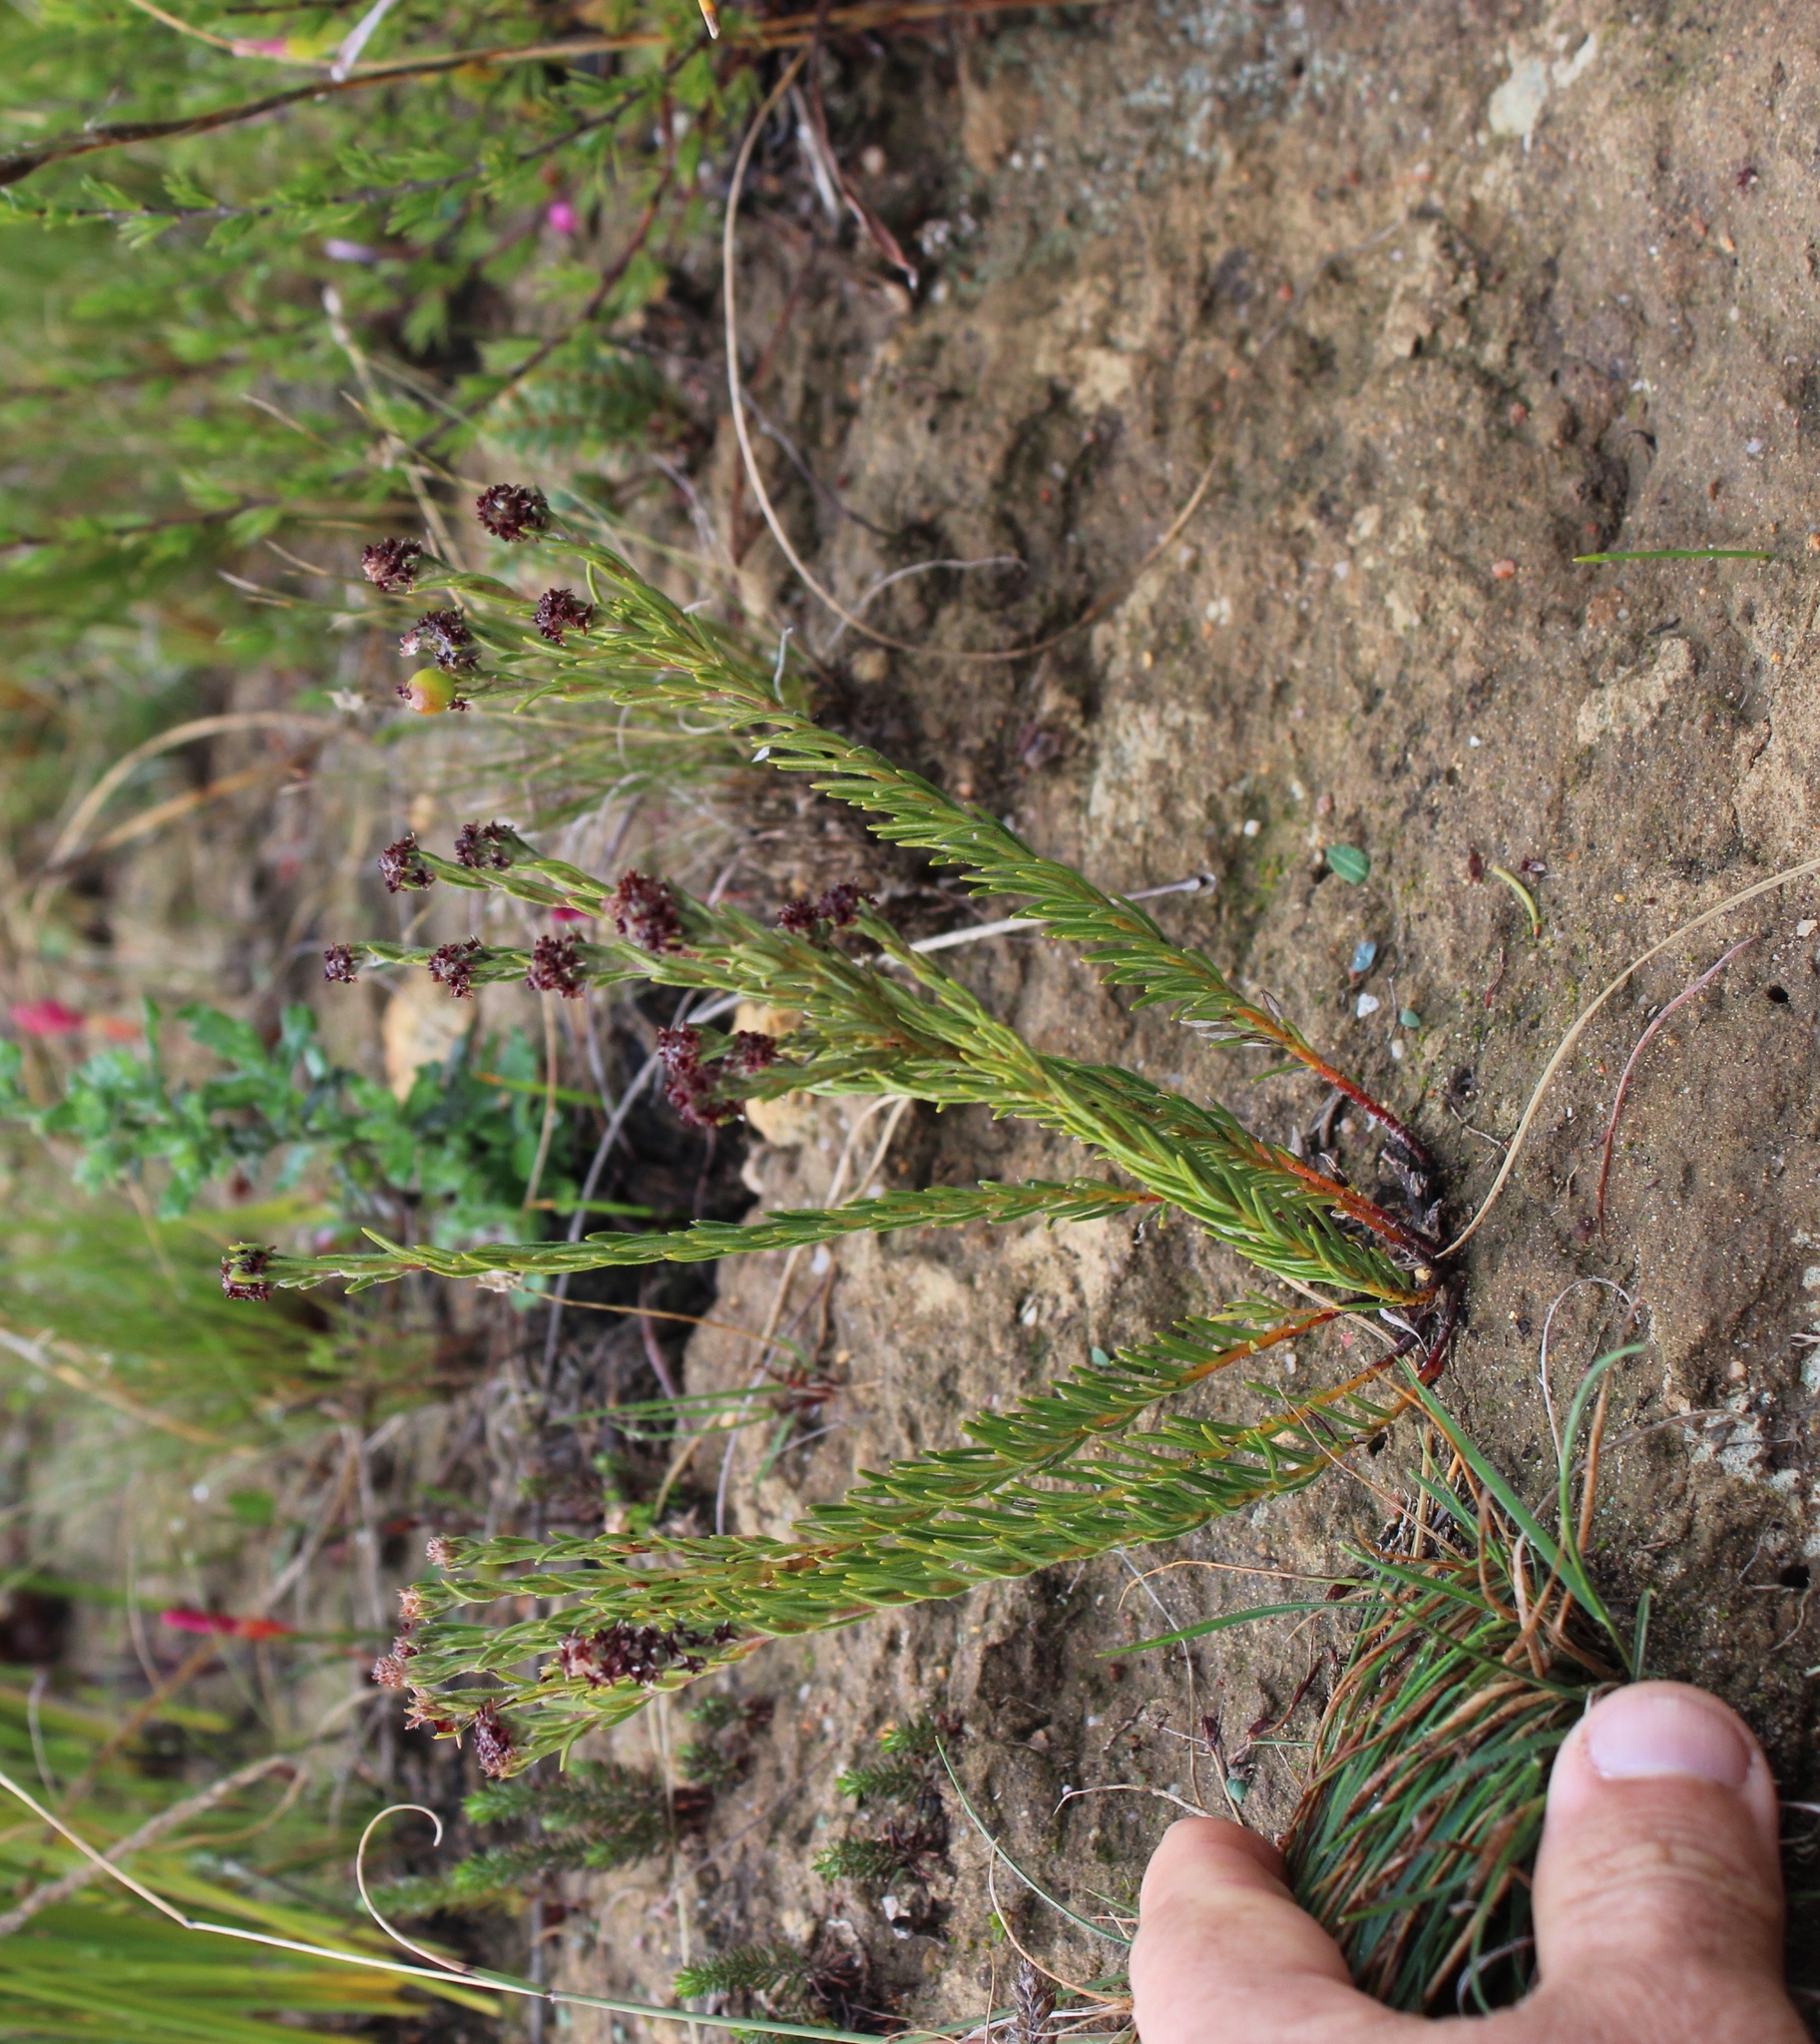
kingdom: Plantae
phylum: Tracheophyta
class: Magnoliopsida
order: Rosales
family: Rhamnaceae
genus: Phylica
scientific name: Phylica imberbis
